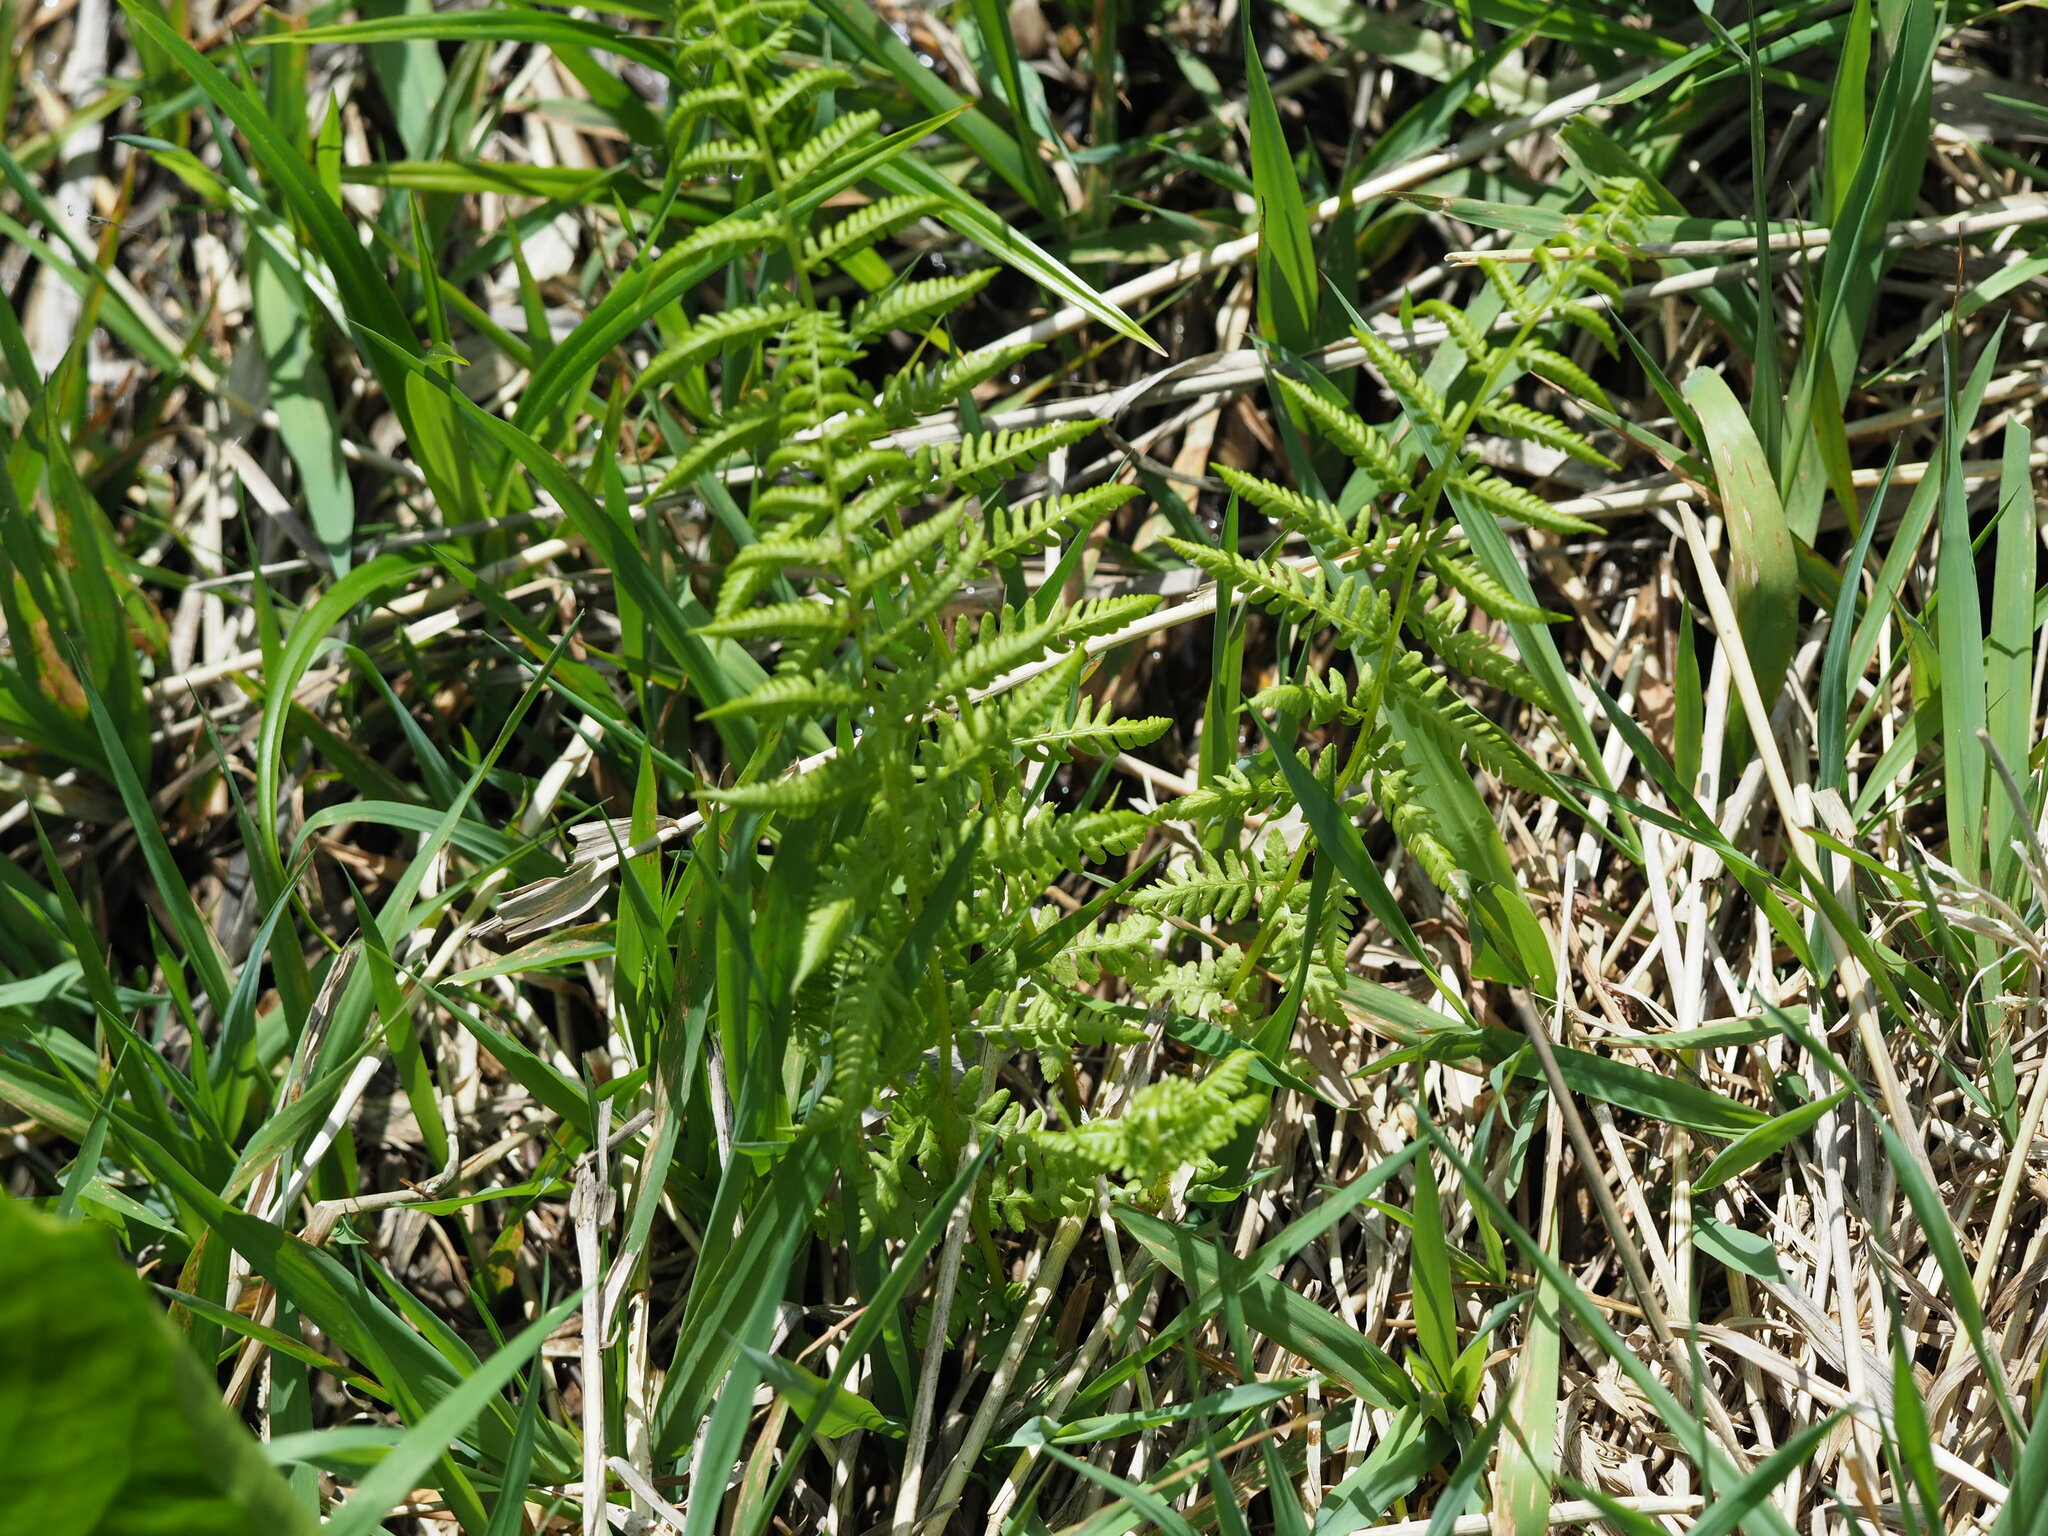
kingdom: Plantae
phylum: Tracheophyta
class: Polypodiopsida
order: Polypodiales
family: Athyriaceae
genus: Athyrium
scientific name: Athyrium filix-femina
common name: Lady fern
